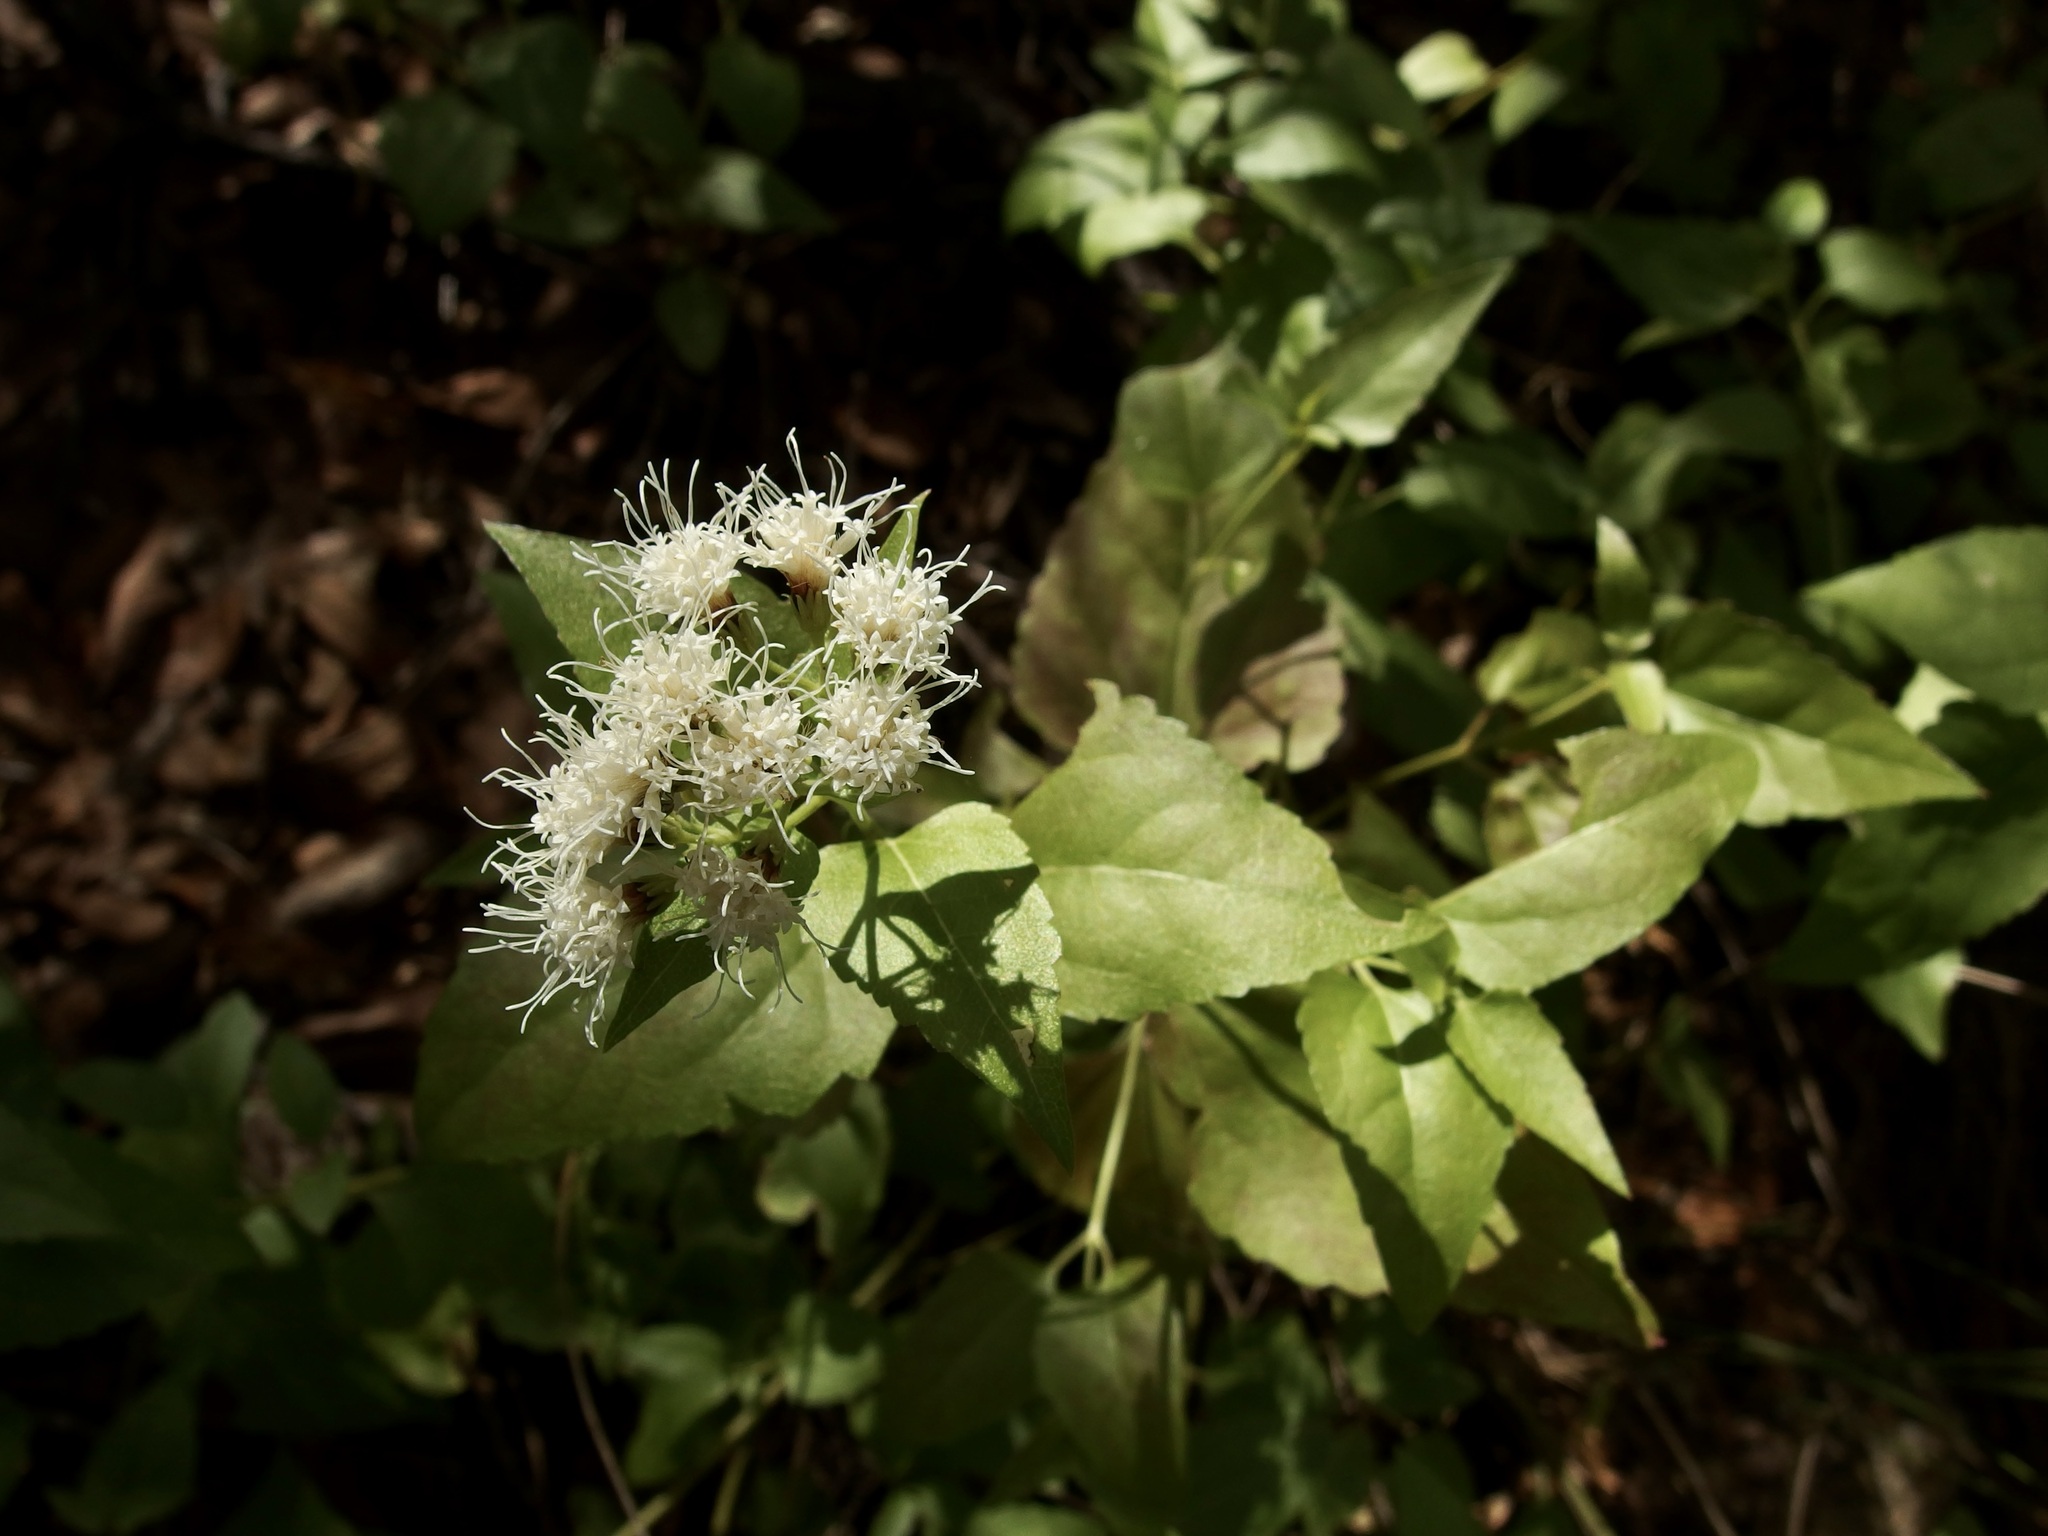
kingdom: Plantae
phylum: Tracheophyta
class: Magnoliopsida
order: Asterales
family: Asteraceae
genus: Ageratina
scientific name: Ageratina herbacea
